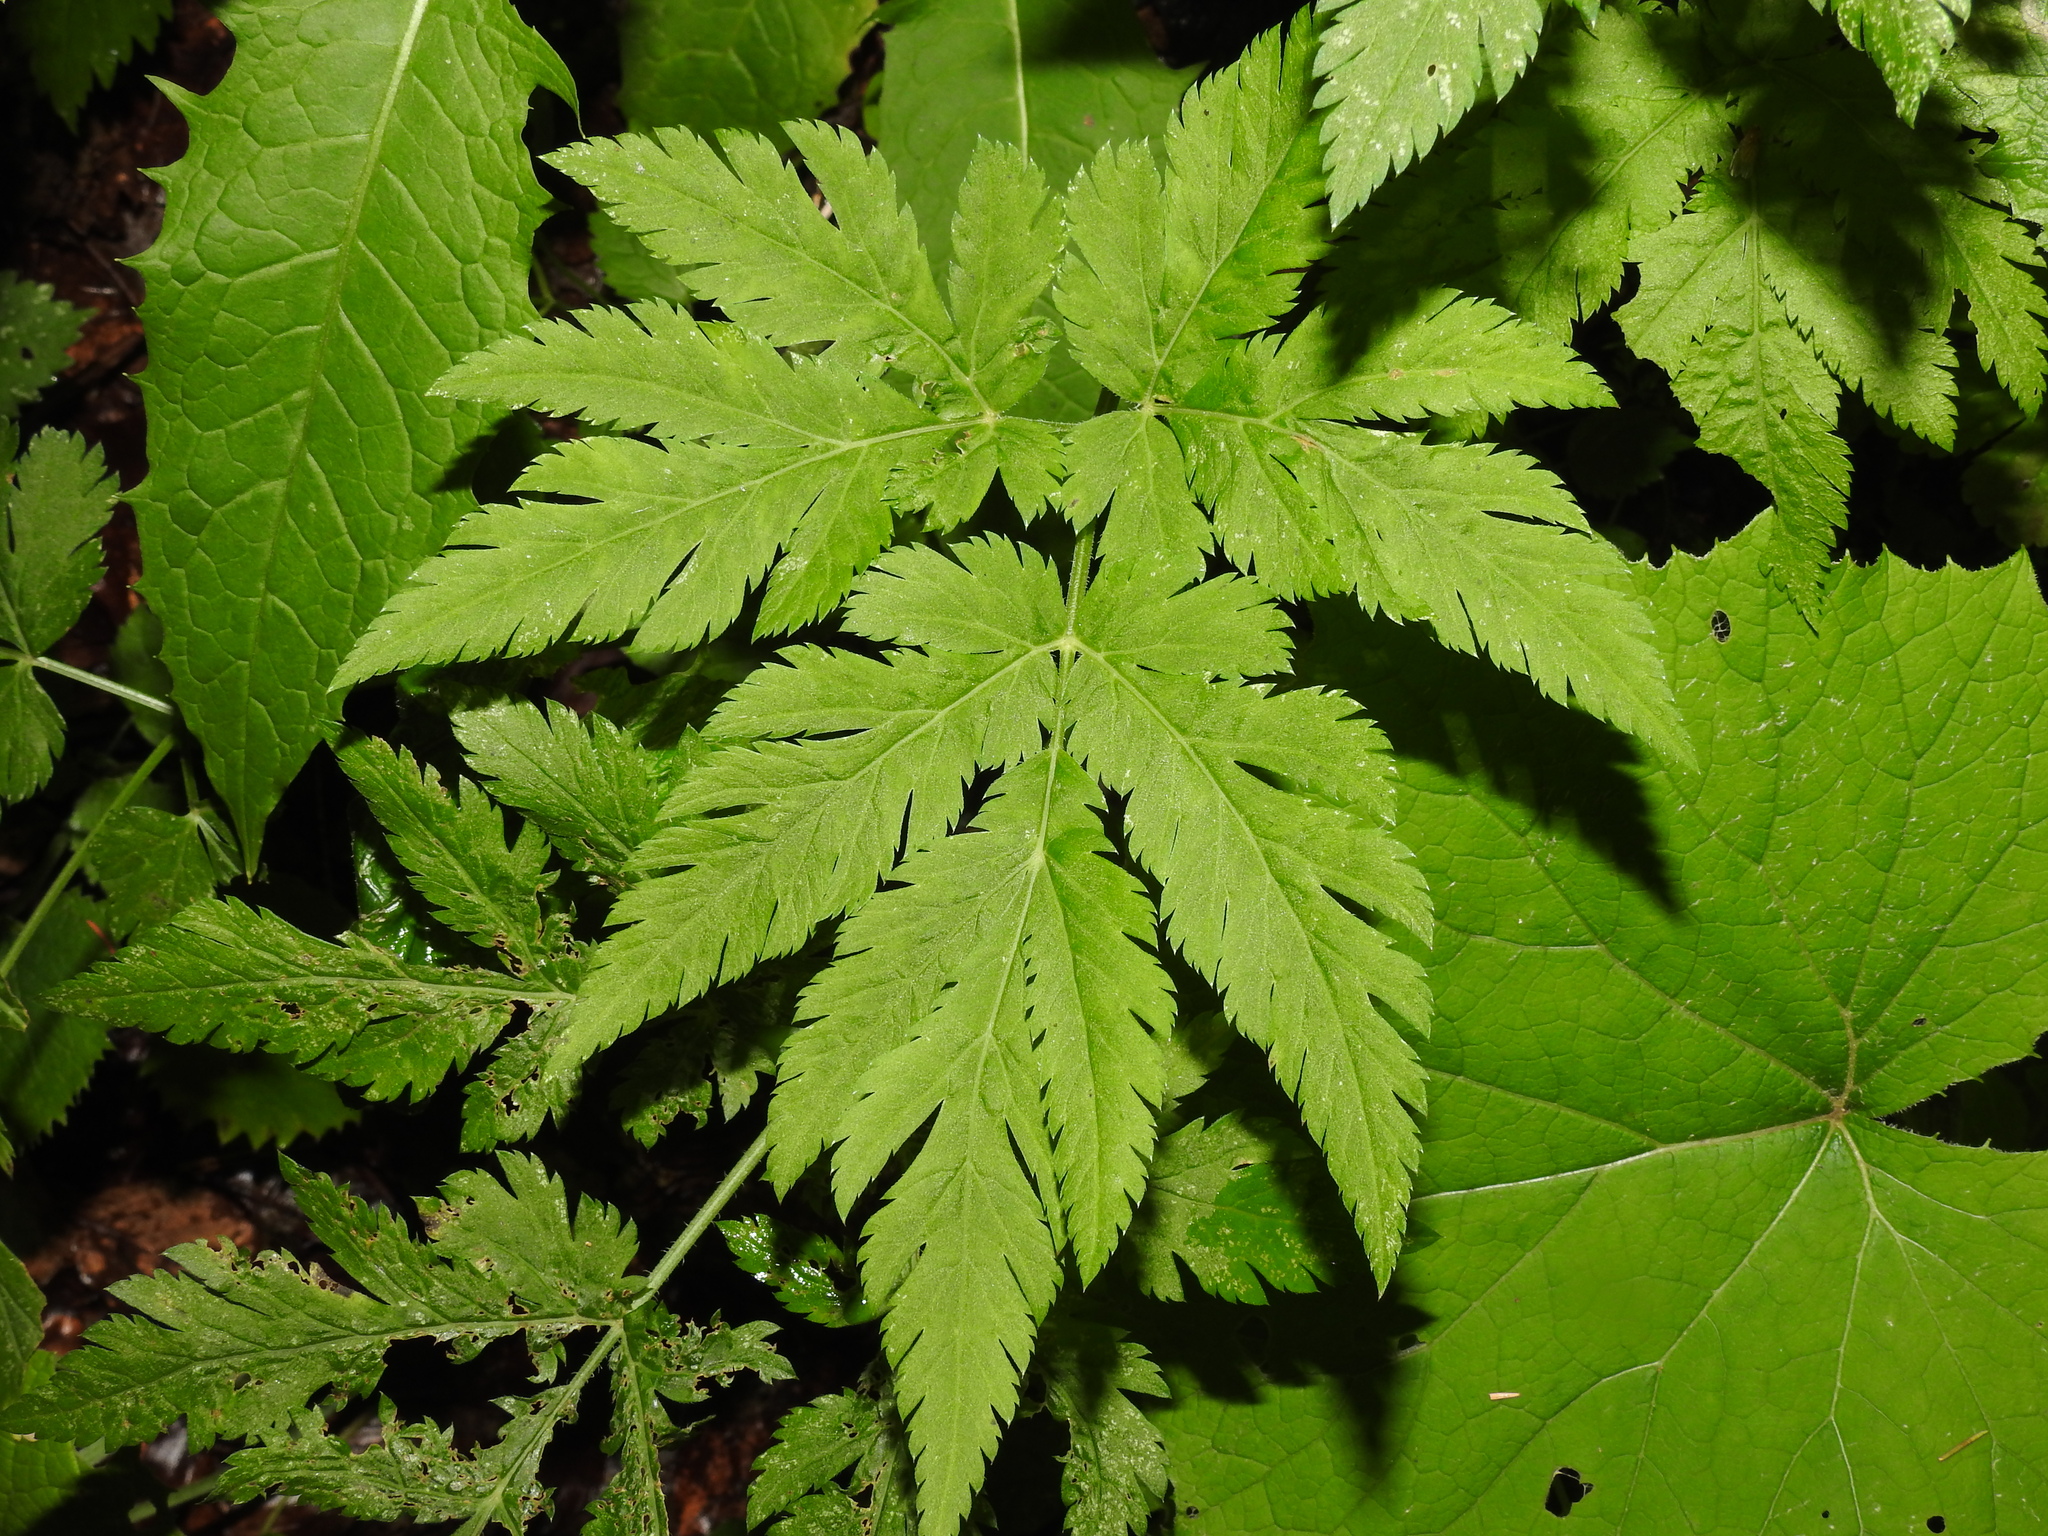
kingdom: Plantae
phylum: Tracheophyta
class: Magnoliopsida
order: Apiales
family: Apiaceae
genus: Chaerophyllum
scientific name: Chaerophyllum hirsutum
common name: Hairy chervil
